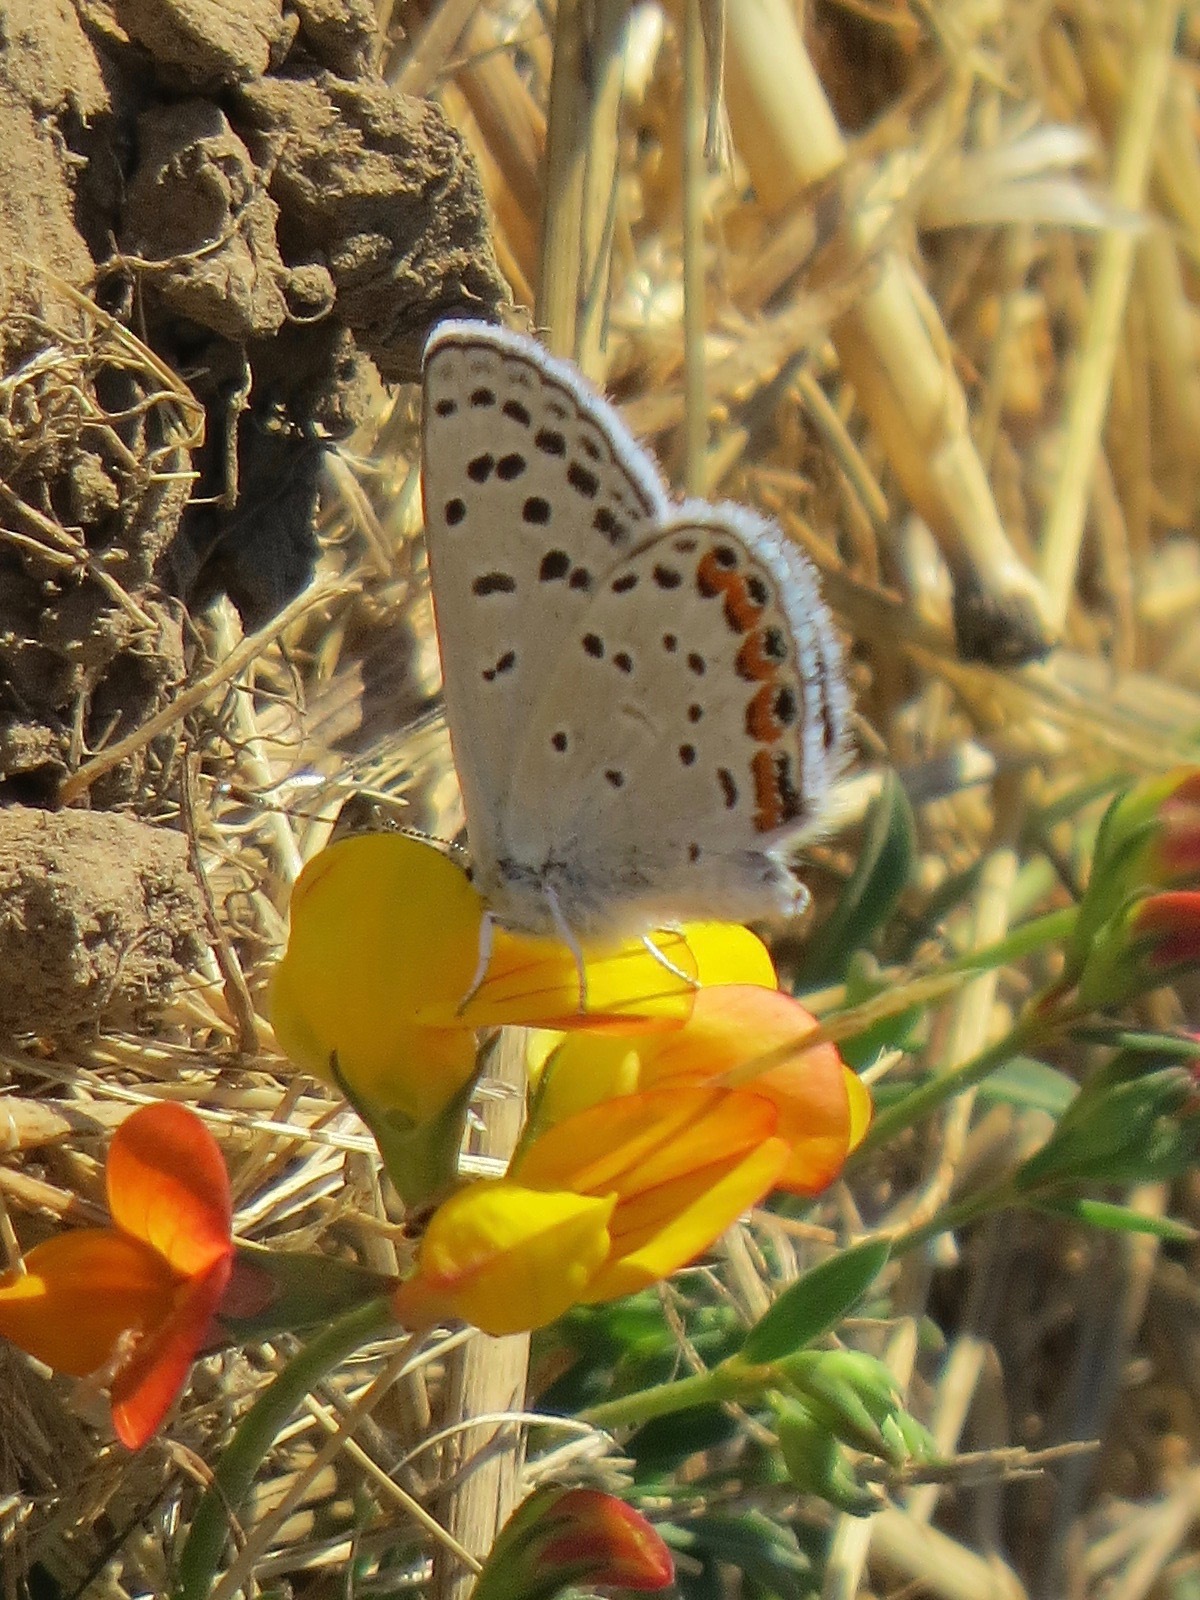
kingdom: Animalia
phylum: Arthropoda
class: Insecta
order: Lepidoptera
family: Lycaenidae
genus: Icaricia
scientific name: Icaricia acmon
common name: Acmon blue
